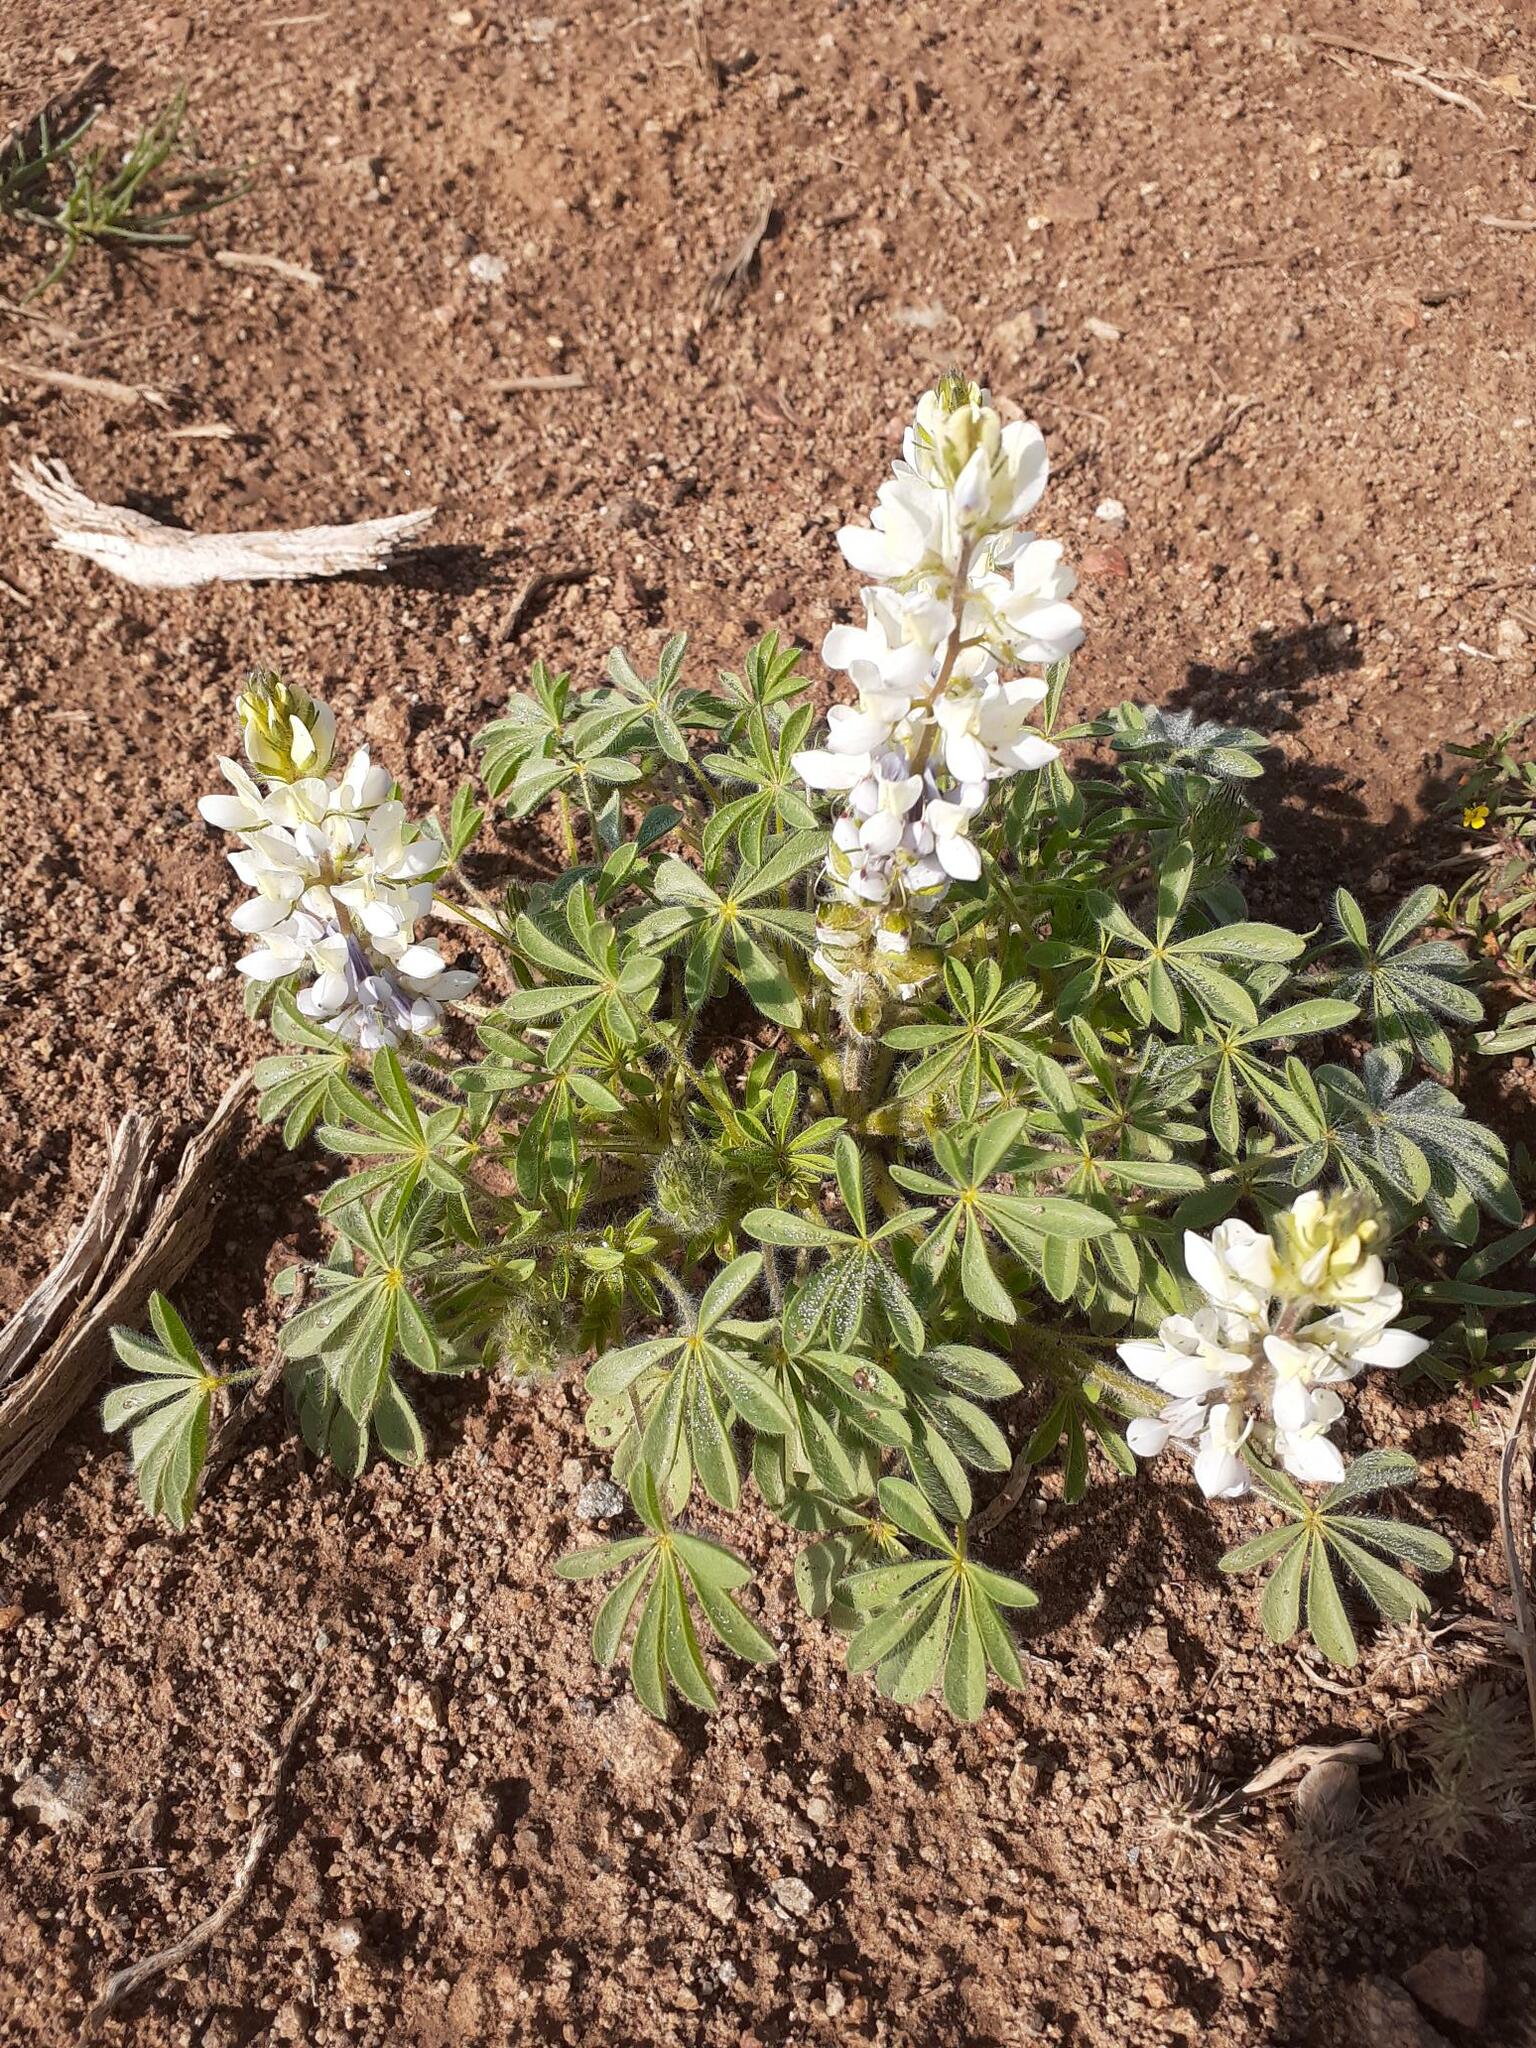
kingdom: Plantae
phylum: Tracheophyta
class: Magnoliopsida
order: Fabales
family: Fabaceae
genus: Lupinus
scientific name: Lupinus malacophyllus
